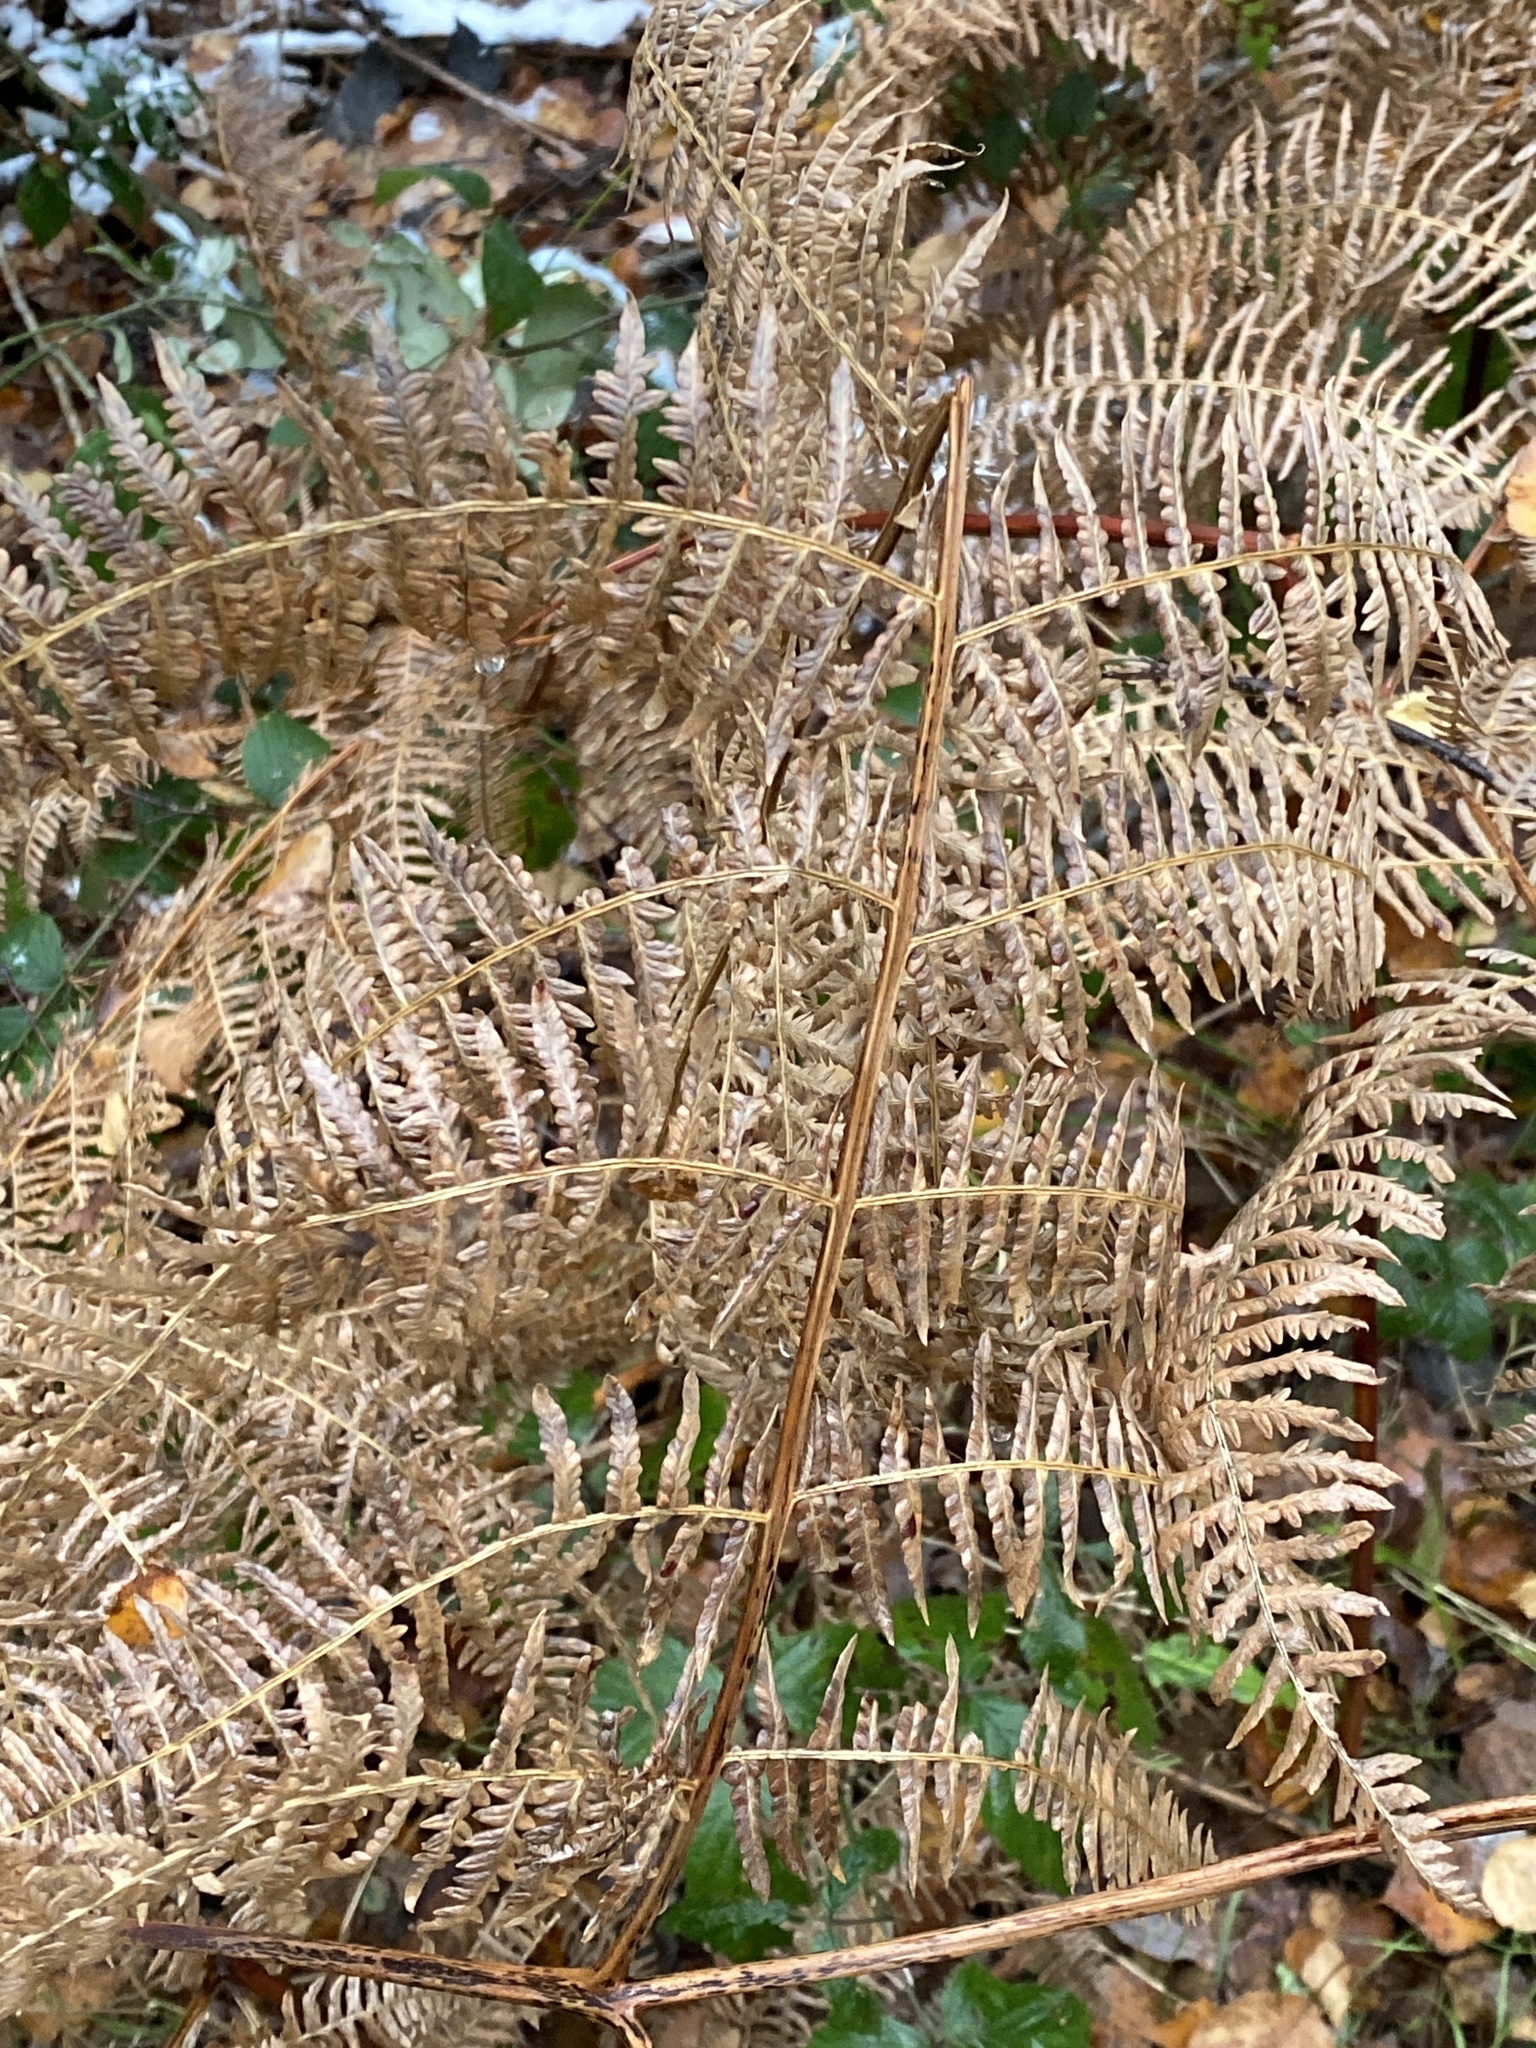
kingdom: Plantae
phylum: Tracheophyta
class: Polypodiopsida
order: Polypodiales
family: Dennstaedtiaceae
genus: Pteridium
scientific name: Pteridium aquilinum
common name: Bracken
